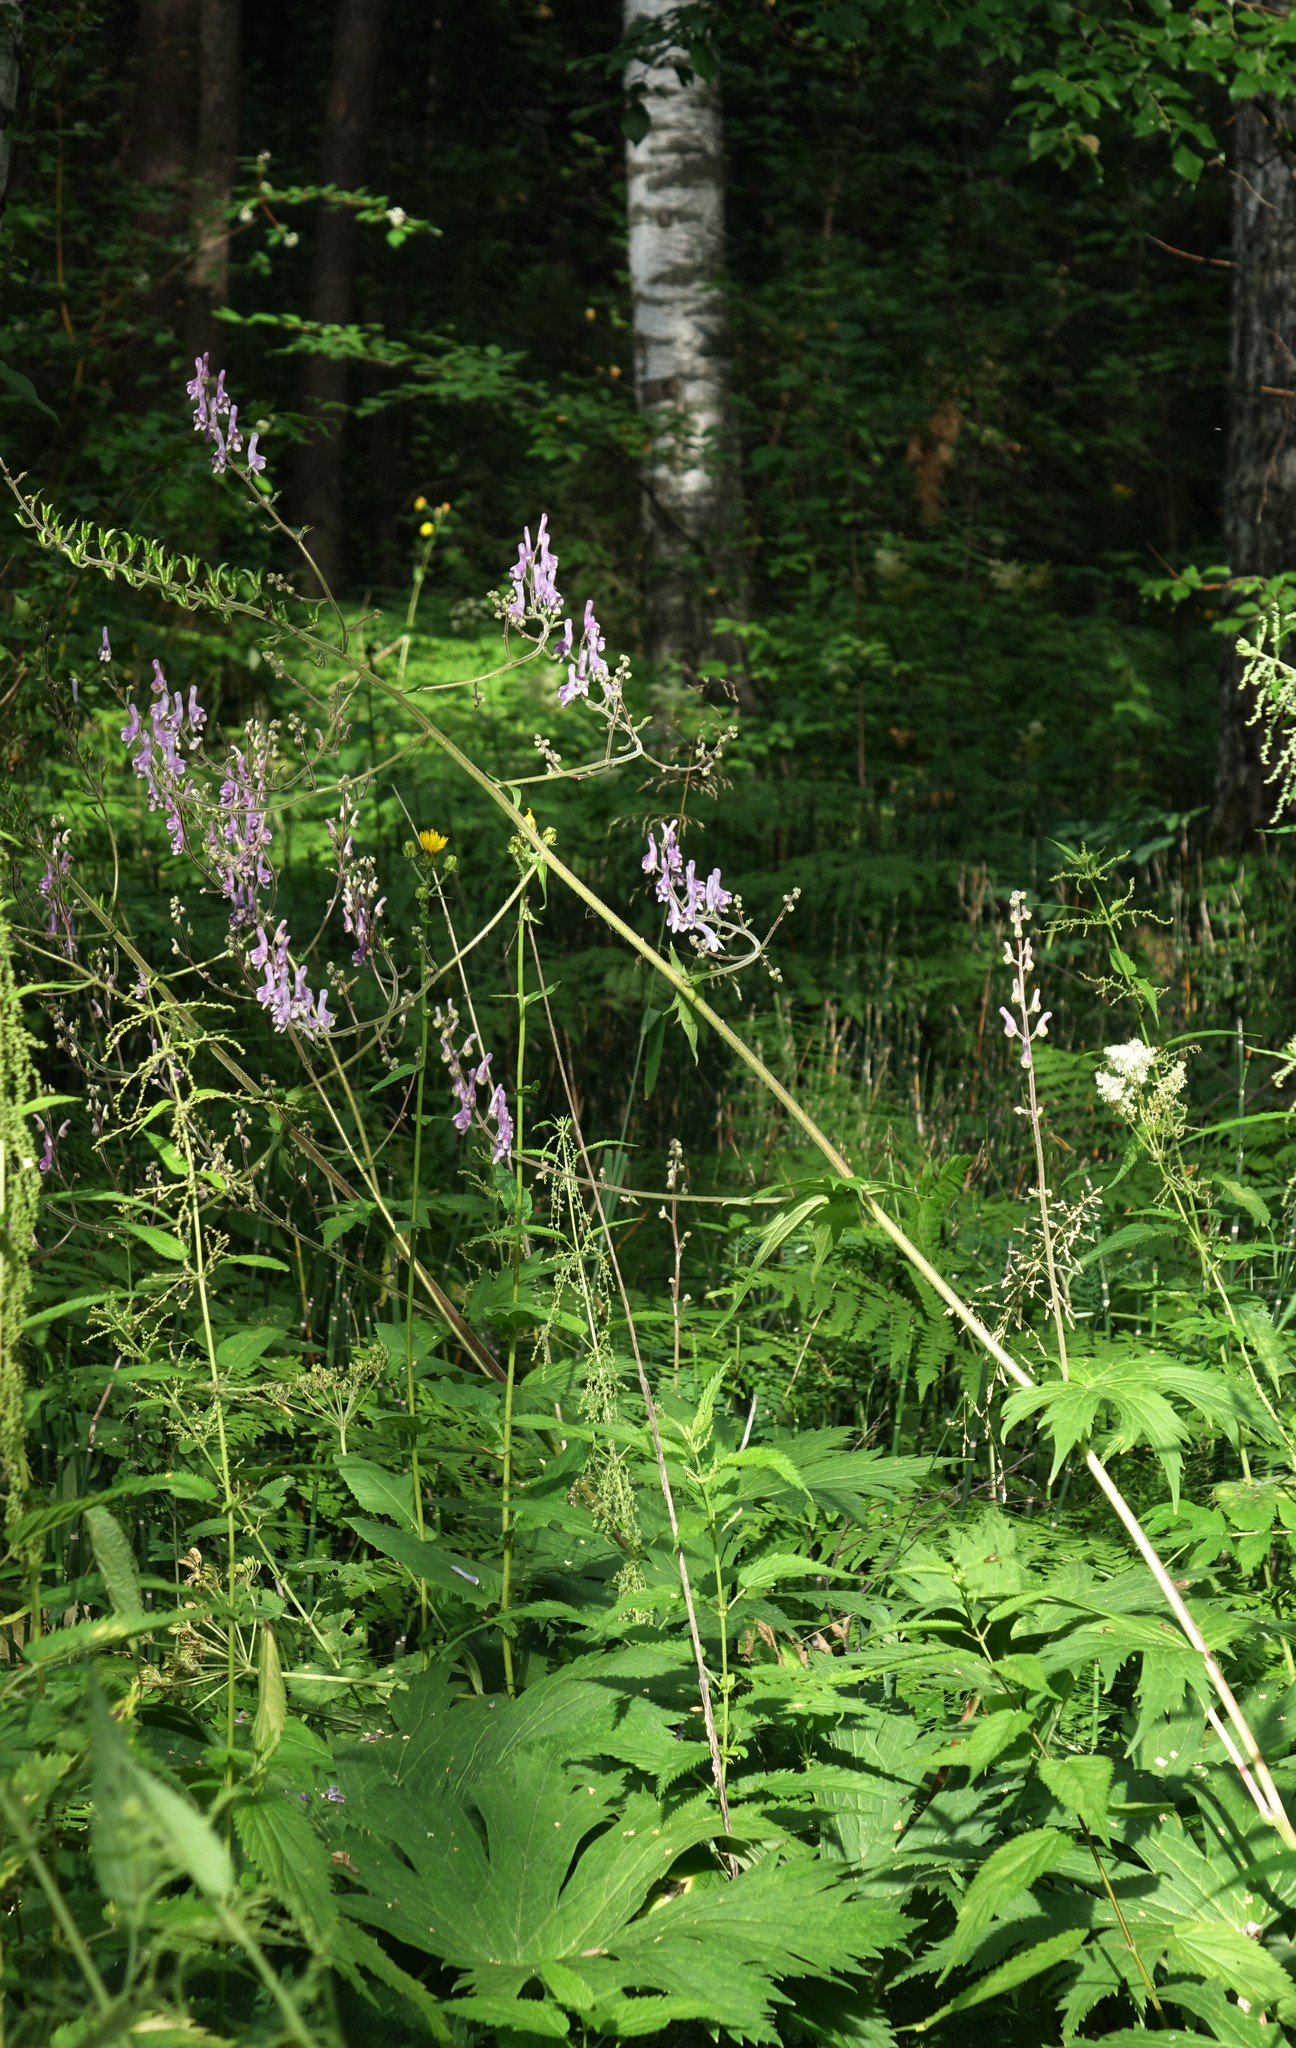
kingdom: Plantae
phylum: Tracheophyta
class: Magnoliopsida
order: Ranunculales
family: Ranunculaceae
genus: Aconitum
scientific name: Aconitum septentrionale
